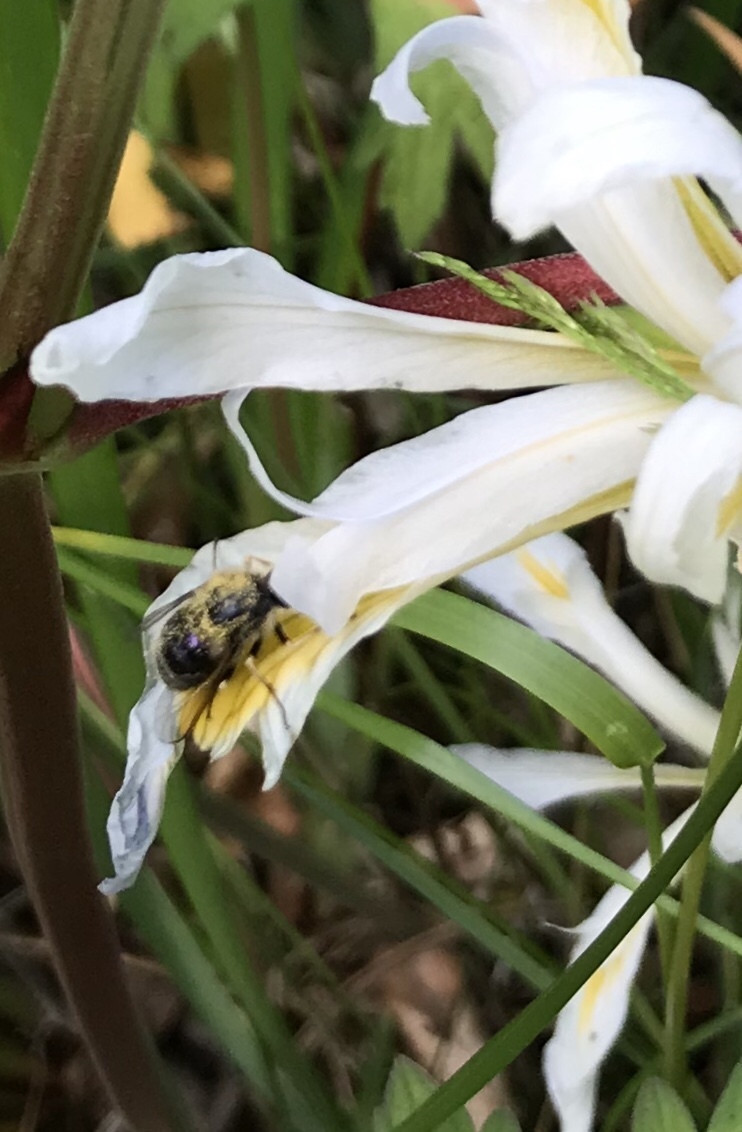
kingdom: Animalia
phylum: Arthropoda
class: Insecta
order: Diptera
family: Acroceridae
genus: Eulonchus
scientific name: Eulonchus tristis
